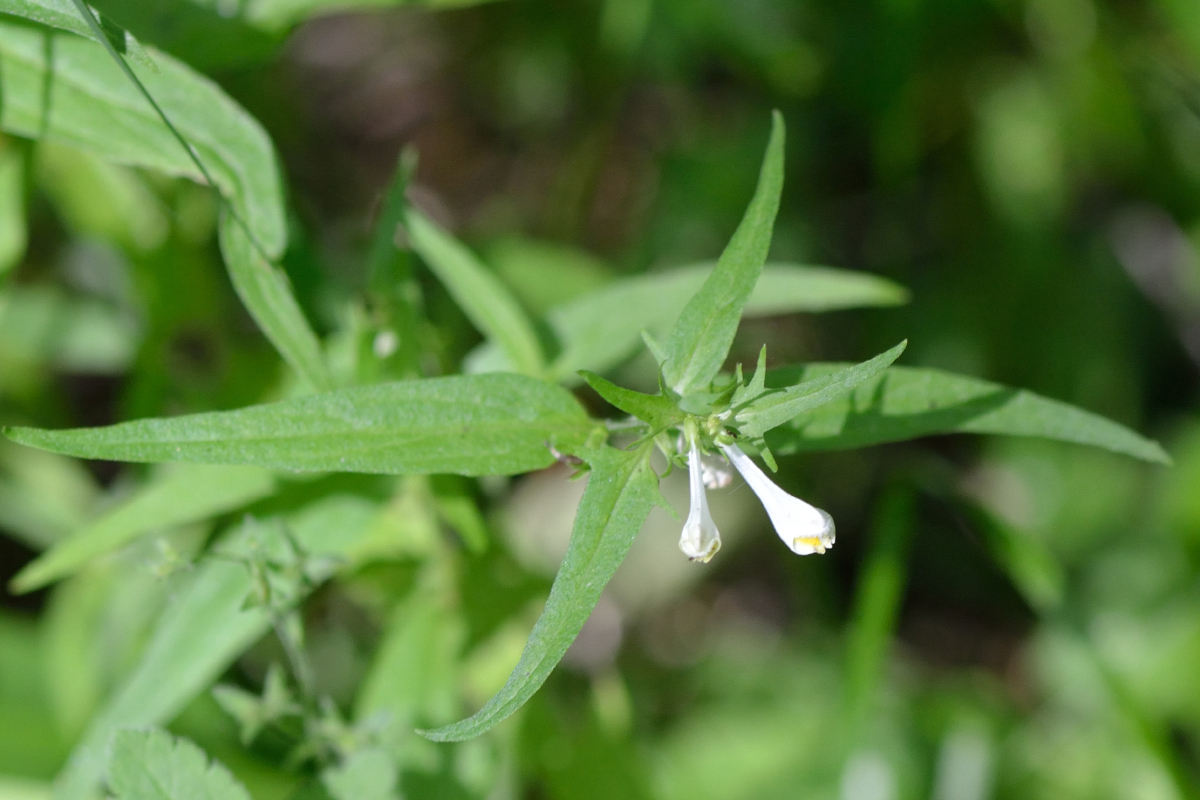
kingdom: Plantae
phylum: Tracheophyta
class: Magnoliopsida
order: Lamiales
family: Orobanchaceae
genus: Melampyrum
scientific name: Melampyrum pratense
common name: Common cow-wheat
